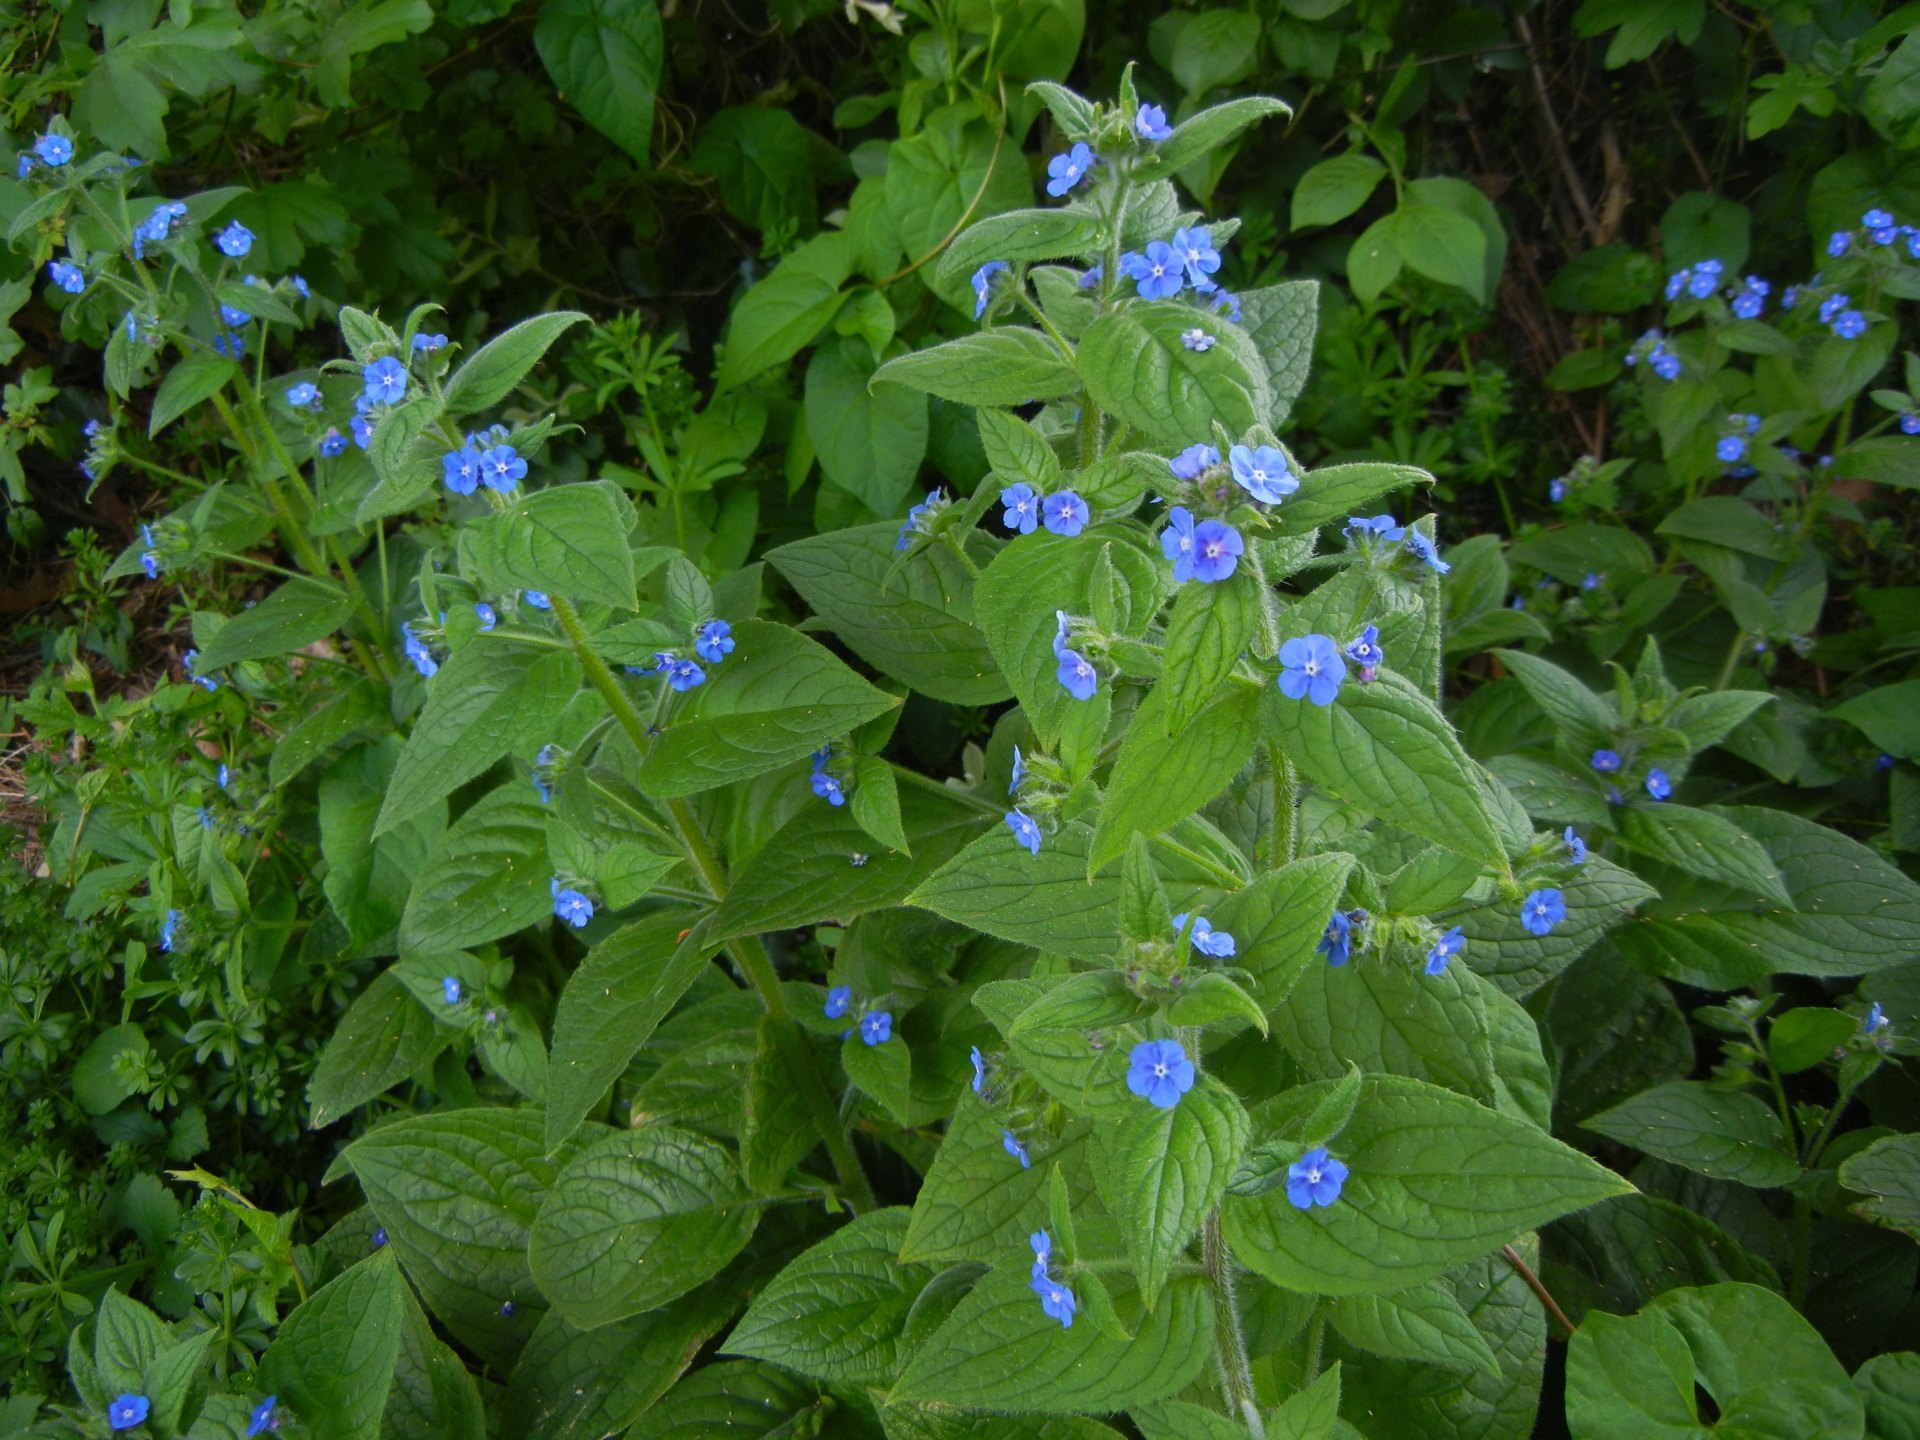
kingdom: Plantae
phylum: Tracheophyta
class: Magnoliopsida
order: Boraginales
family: Boraginaceae
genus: Pentaglottis
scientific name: Pentaglottis sempervirens
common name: Green alkanet
